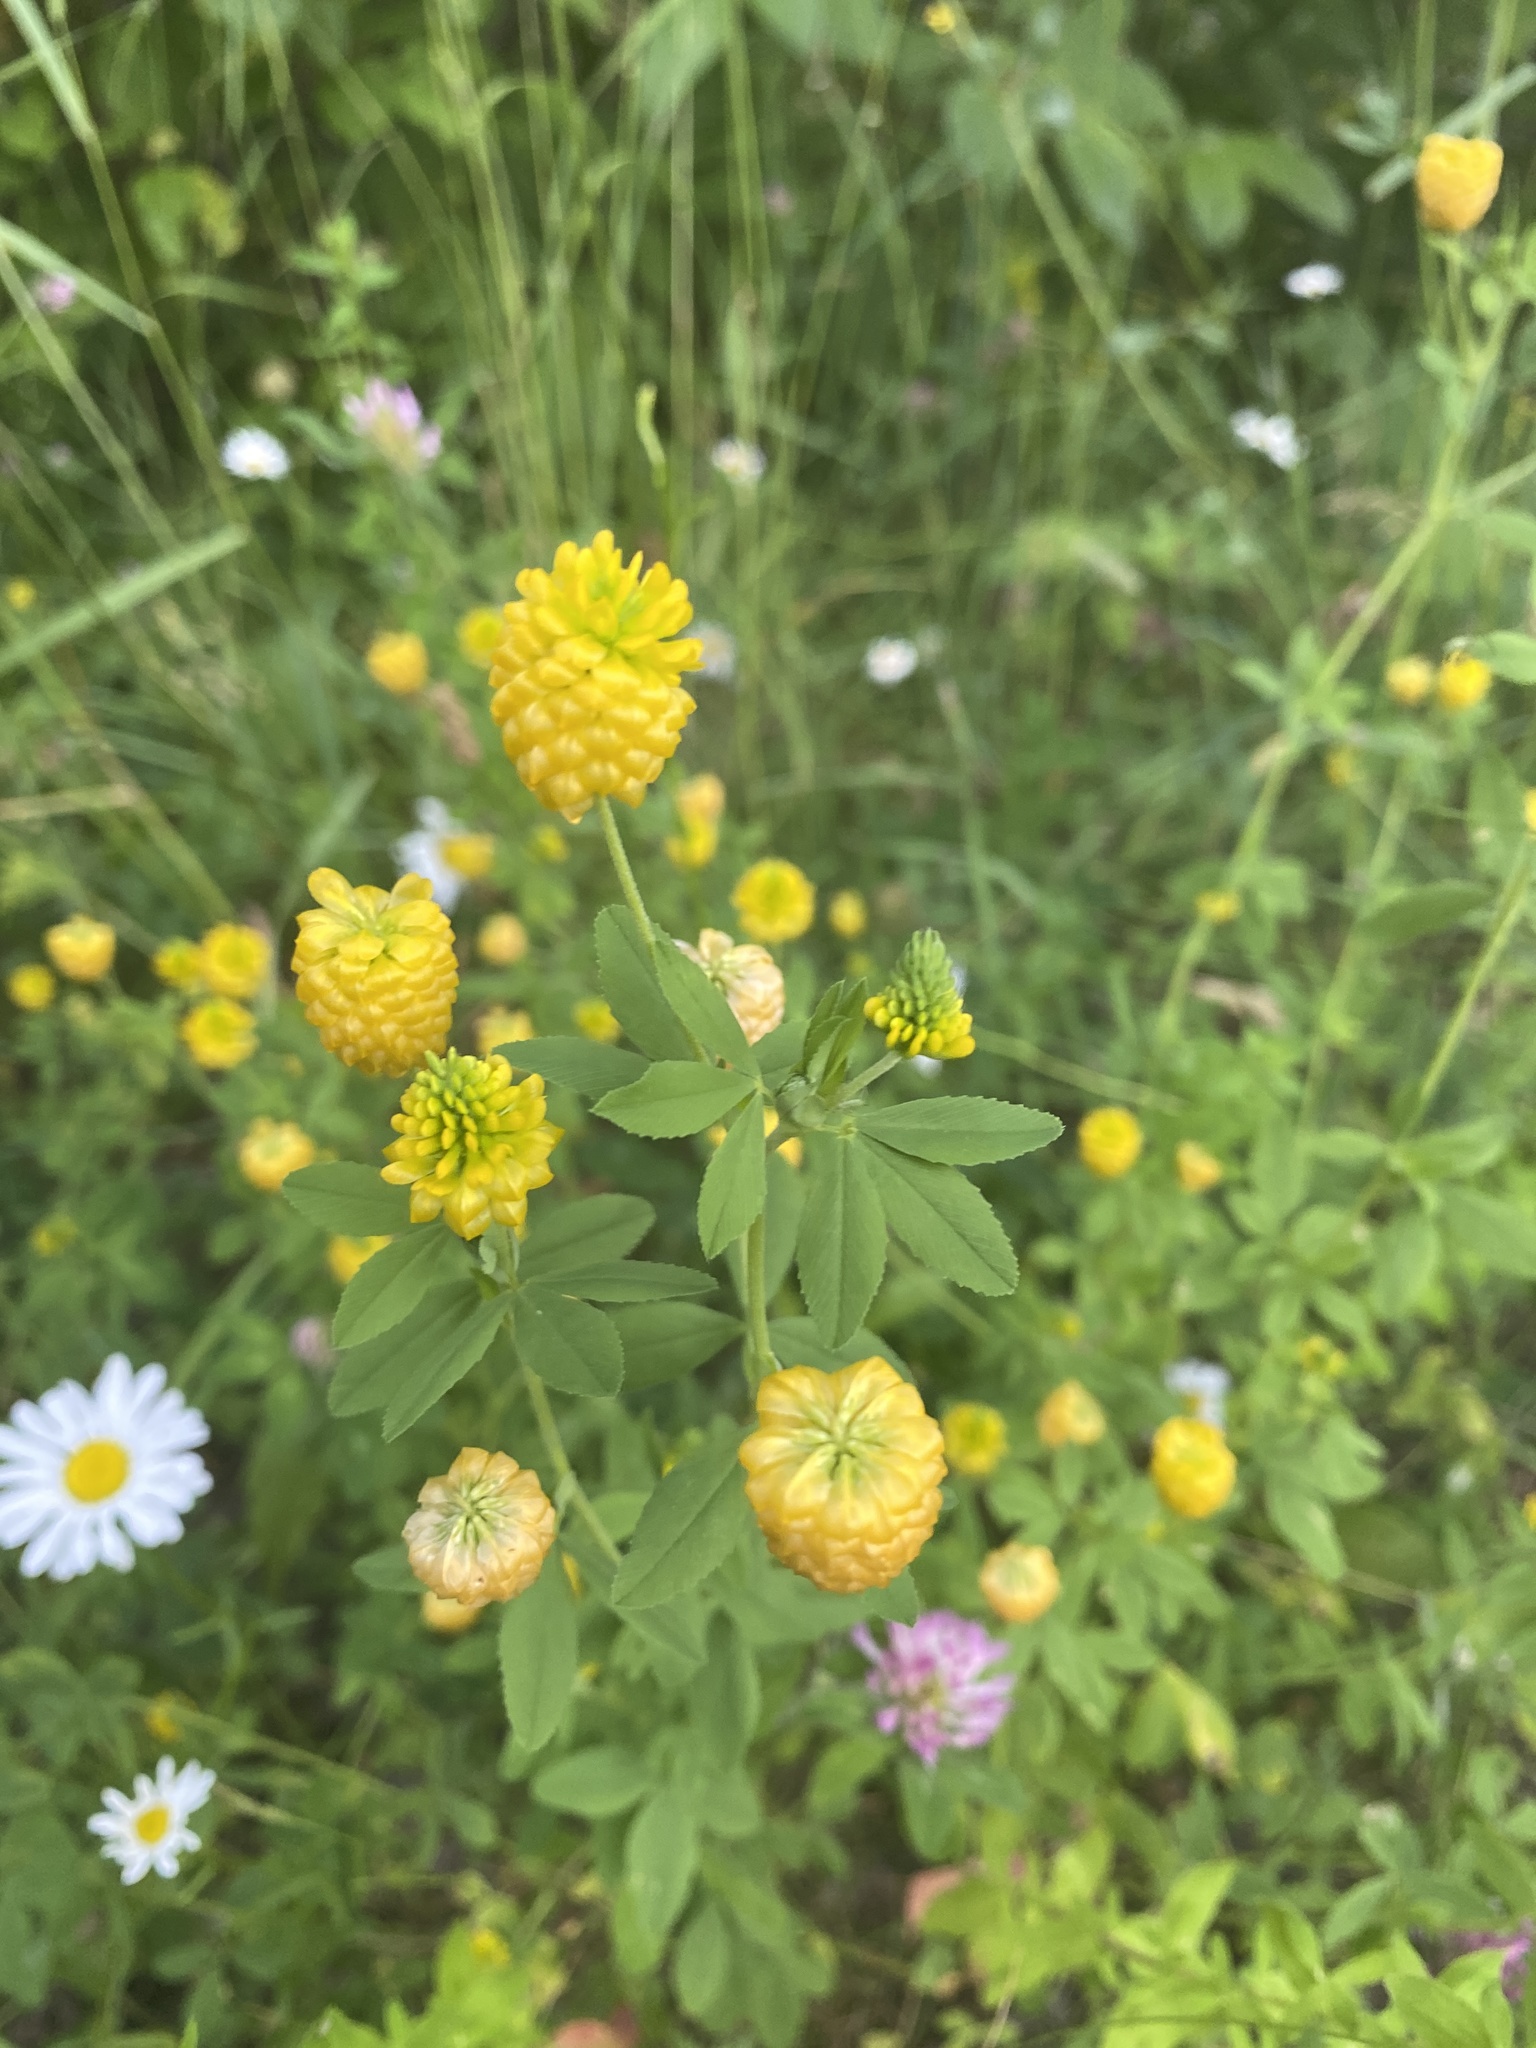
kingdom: Plantae
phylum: Tracheophyta
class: Magnoliopsida
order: Fabales
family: Fabaceae
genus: Trifolium
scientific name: Trifolium aureum
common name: Golden clover
